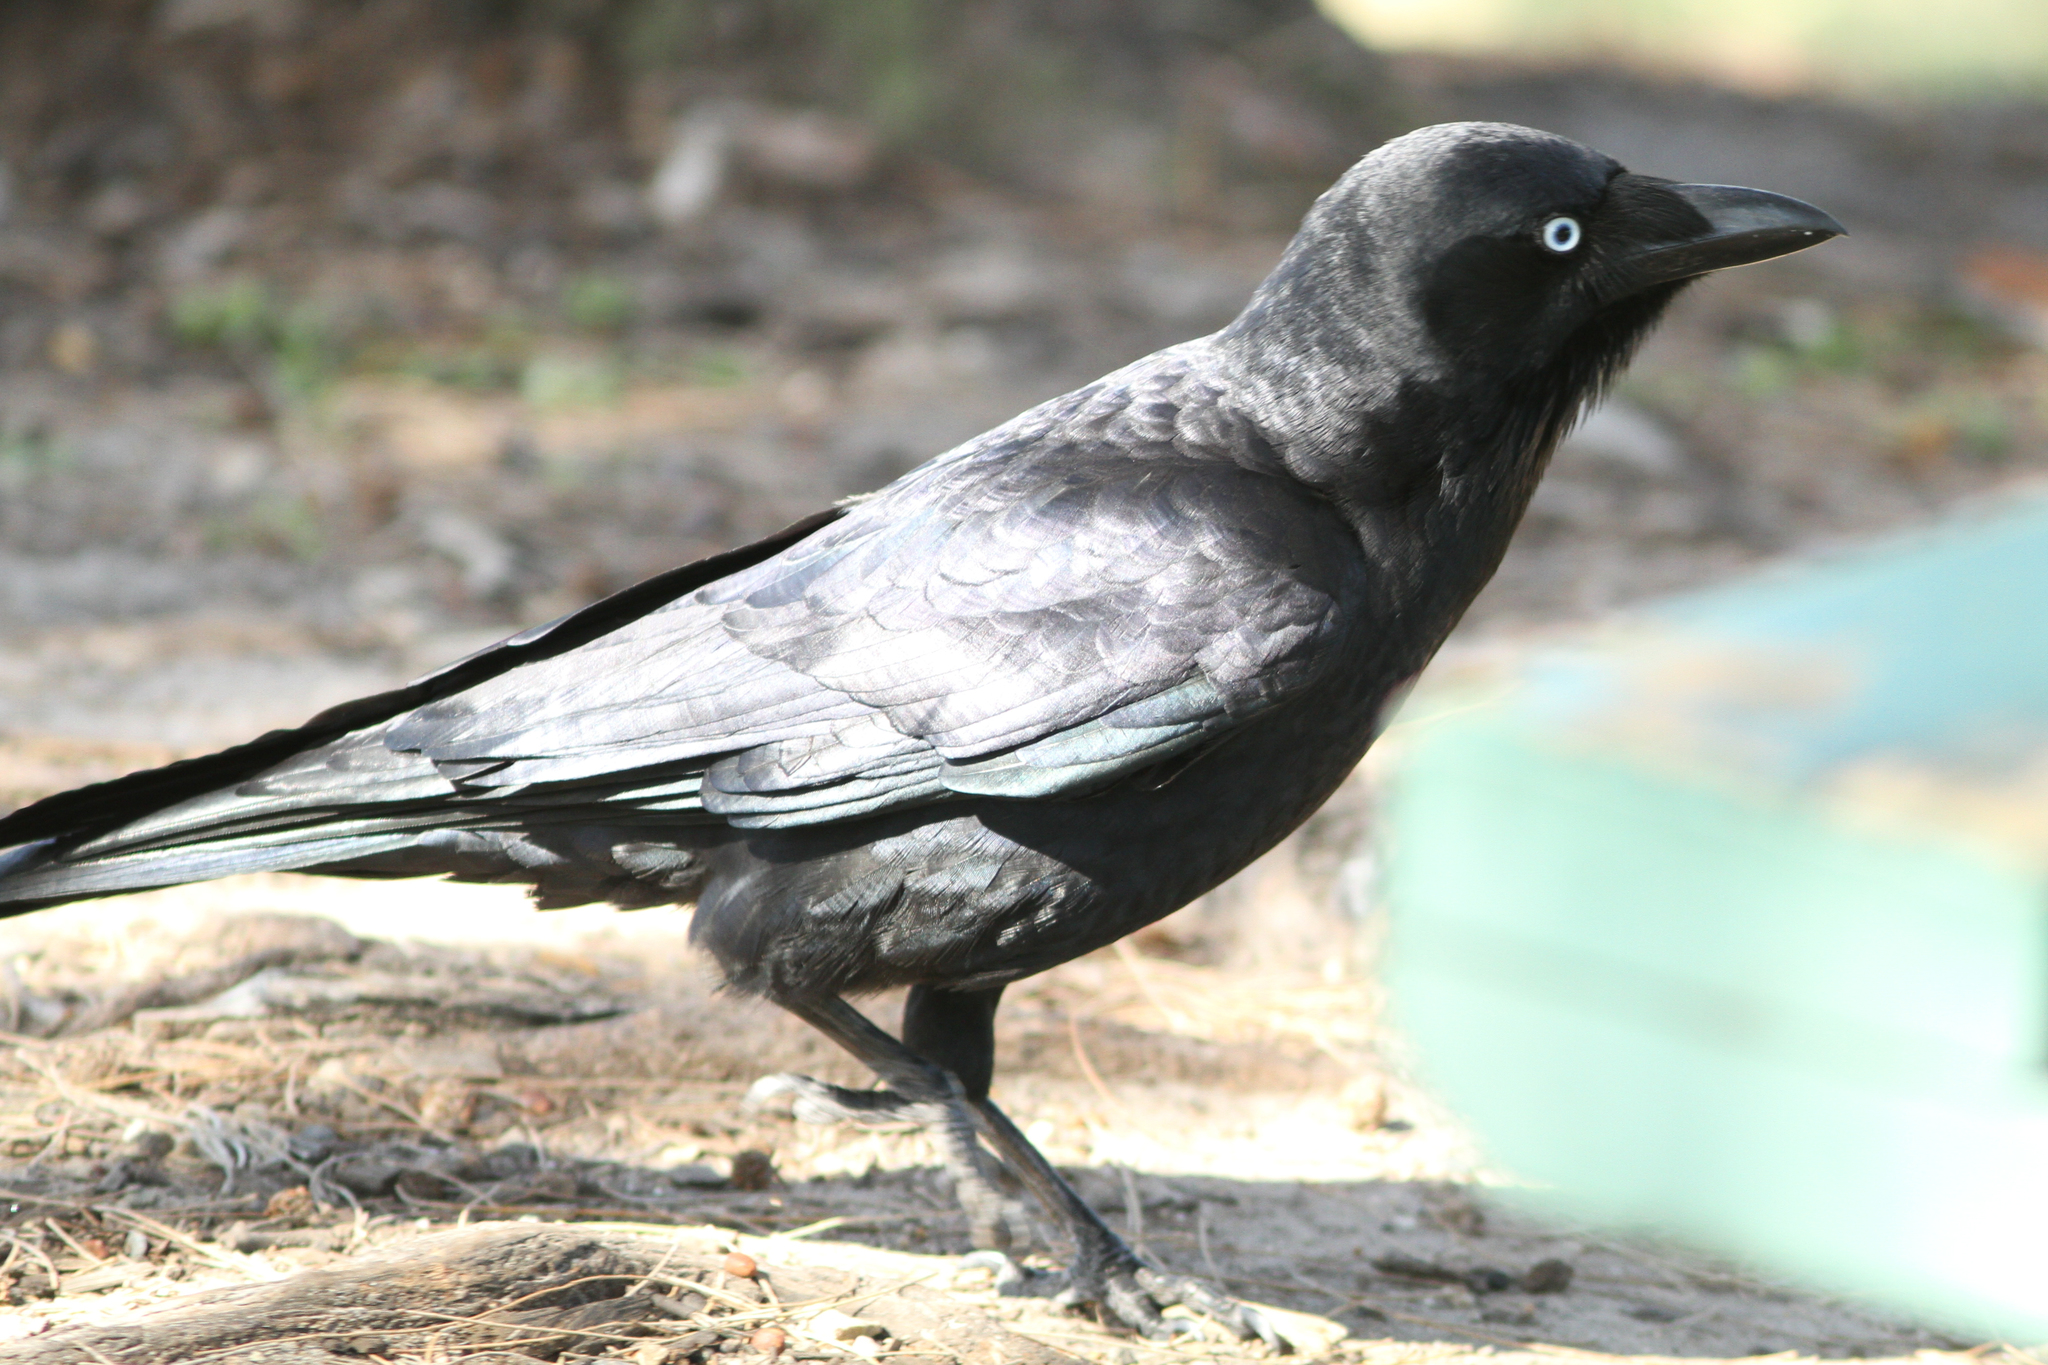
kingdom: Animalia
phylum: Chordata
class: Aves
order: Passeriformes
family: Corvidae
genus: Corvus
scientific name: Corvus orru
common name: Torresian crow
